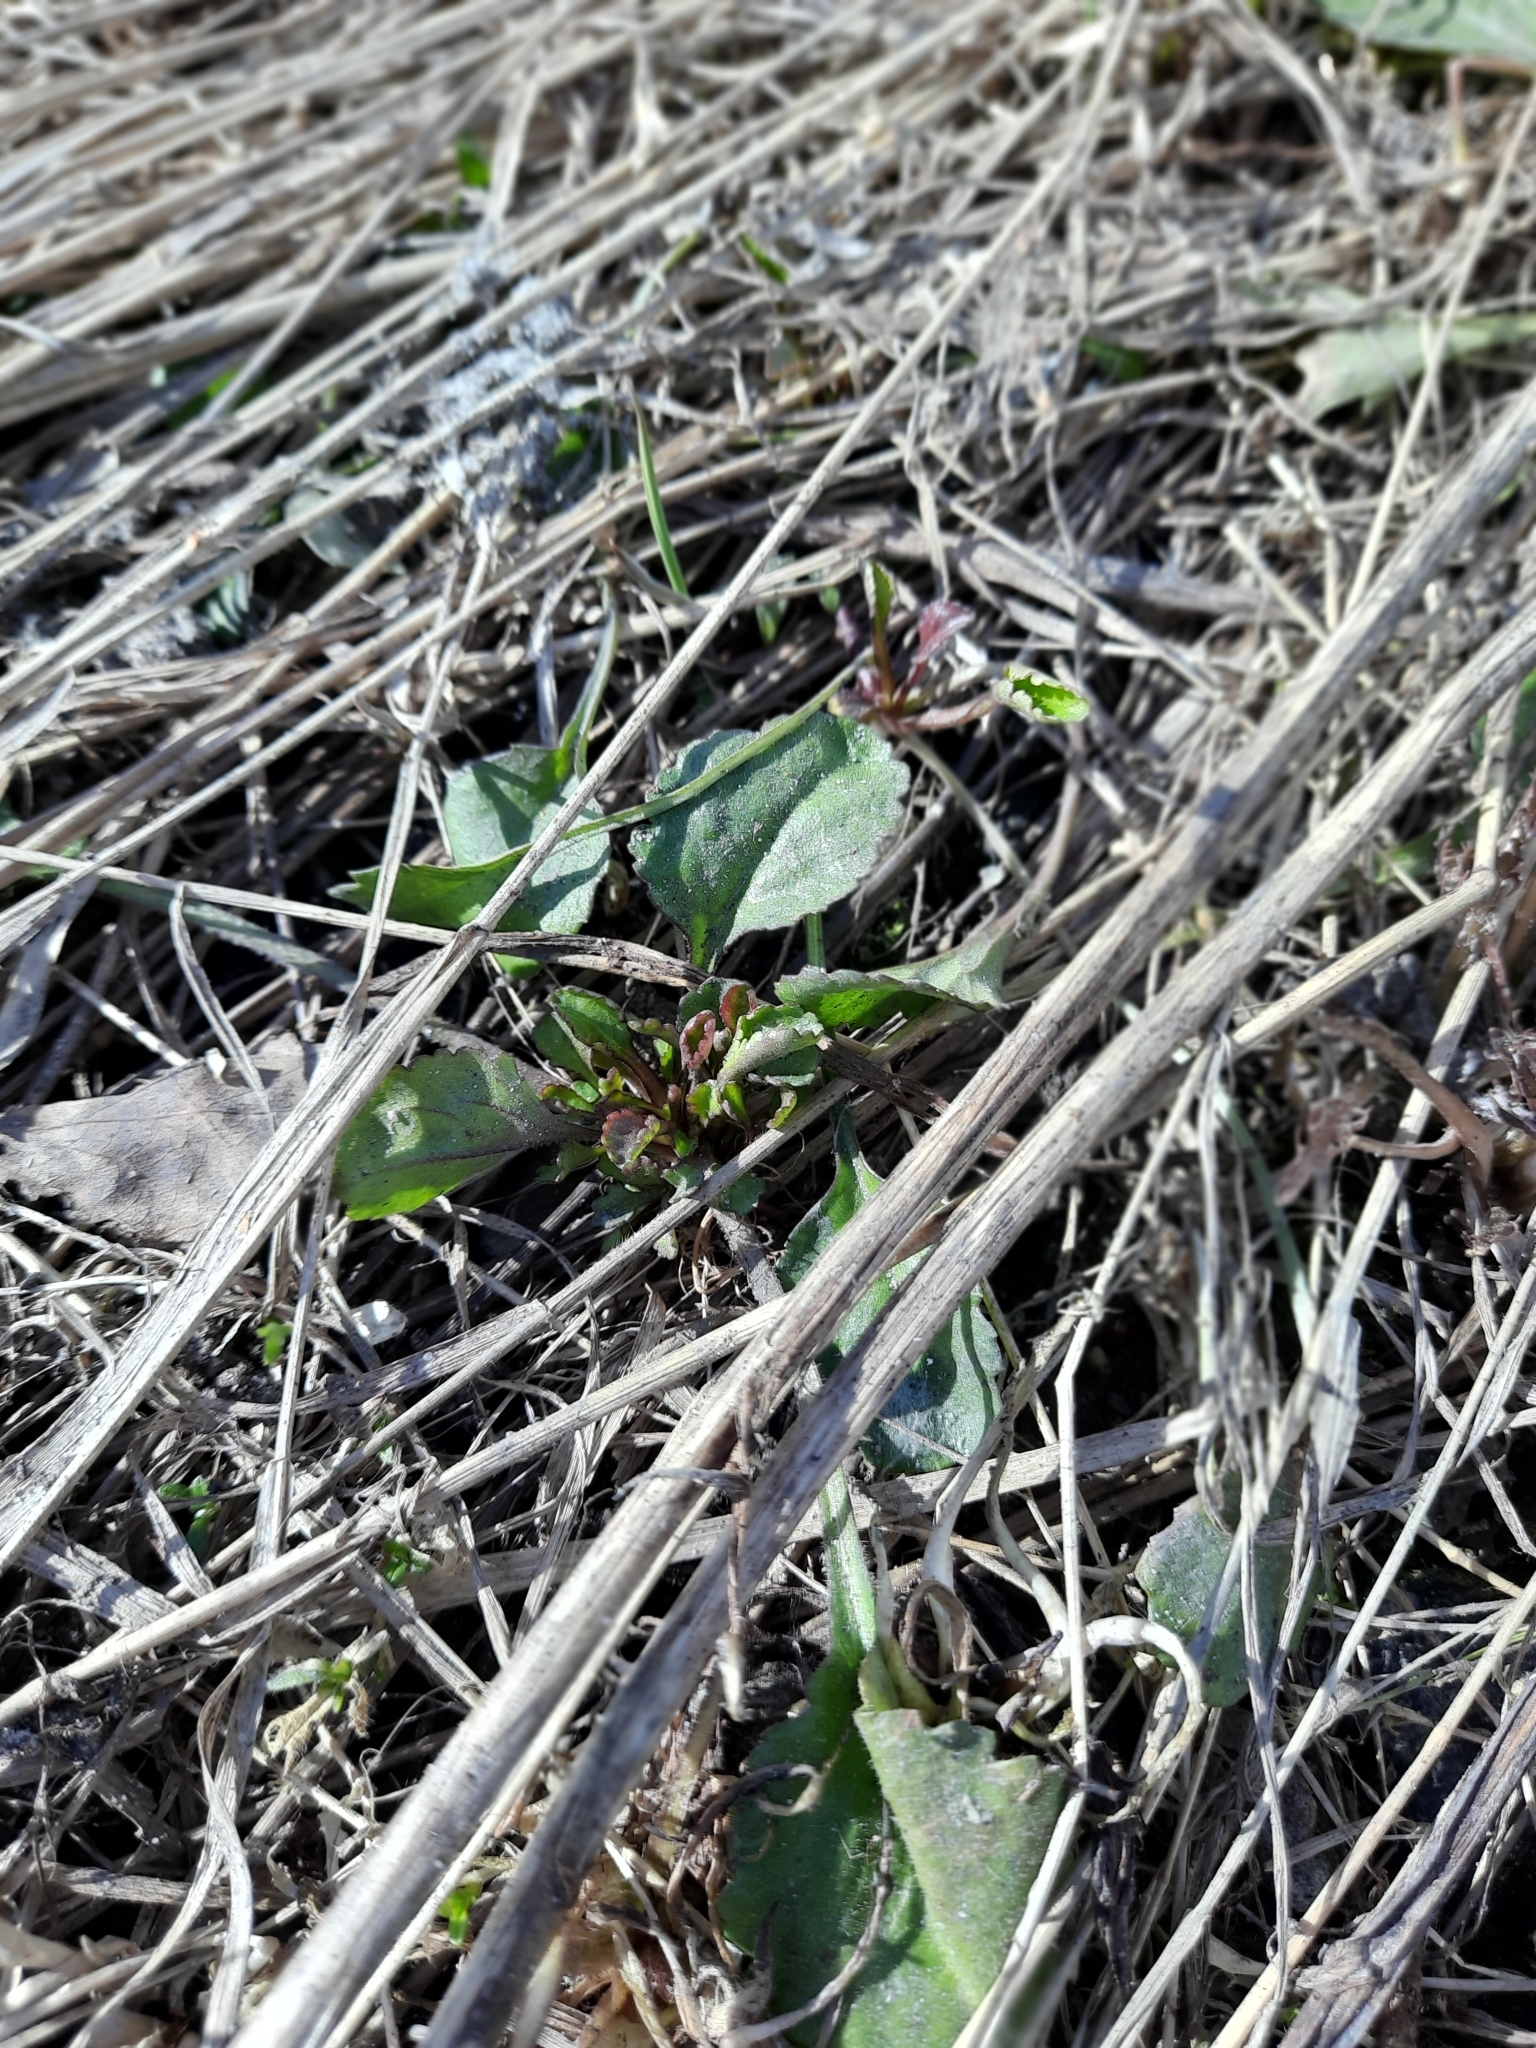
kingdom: Plantae
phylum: Tracheophyta
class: Magnoliopsida
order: Asterales
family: Asteraceae
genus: Leucanthemum
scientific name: Leucanthemum ircutianum
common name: Daisy
